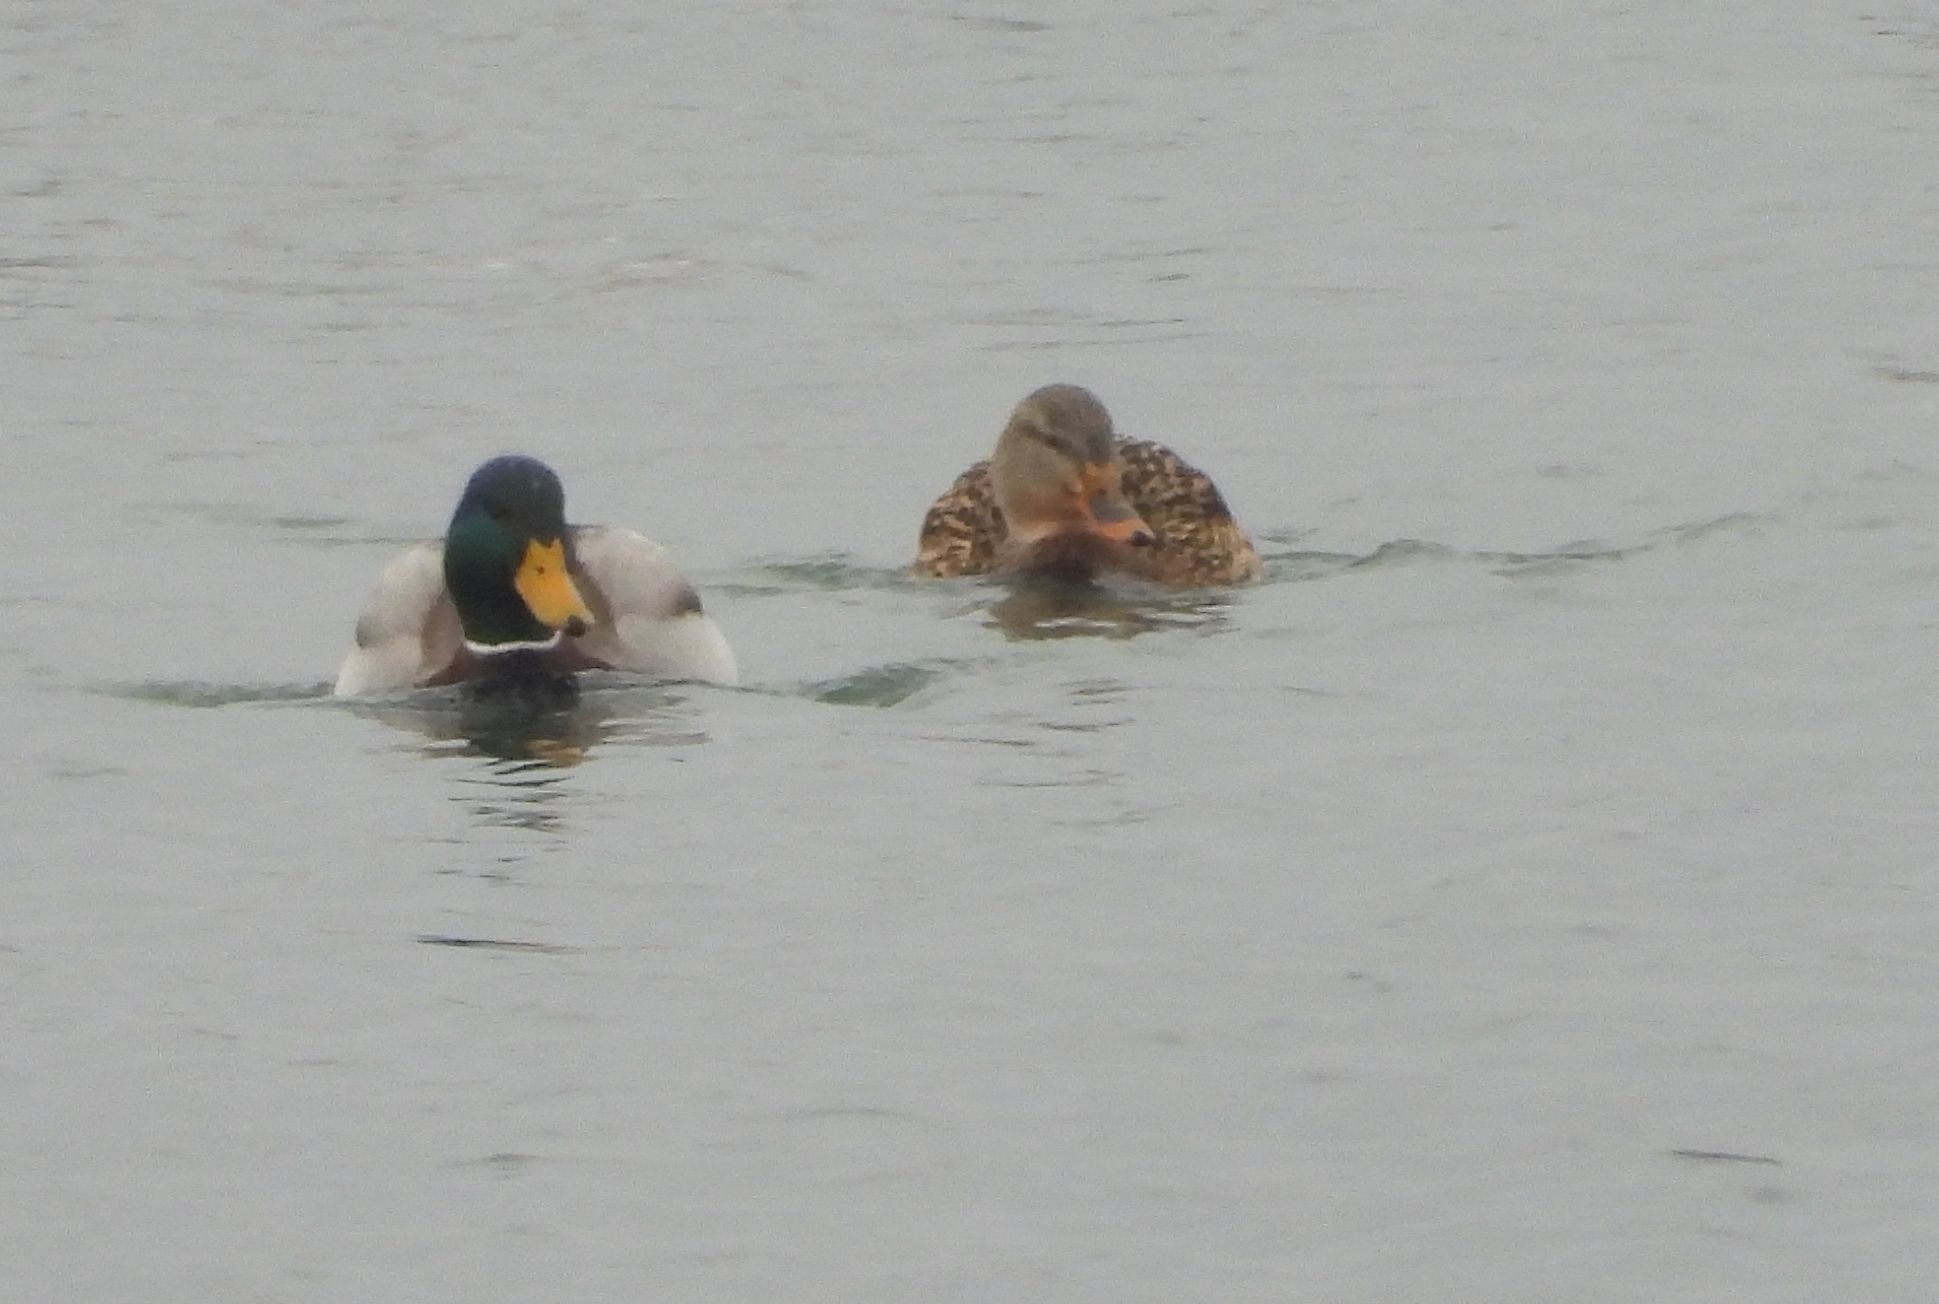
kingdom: Animalia
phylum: Chordata
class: Aves
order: Anseriformes
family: Anatidae
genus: Anas
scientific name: Anas platyrhynchos
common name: Mallard
